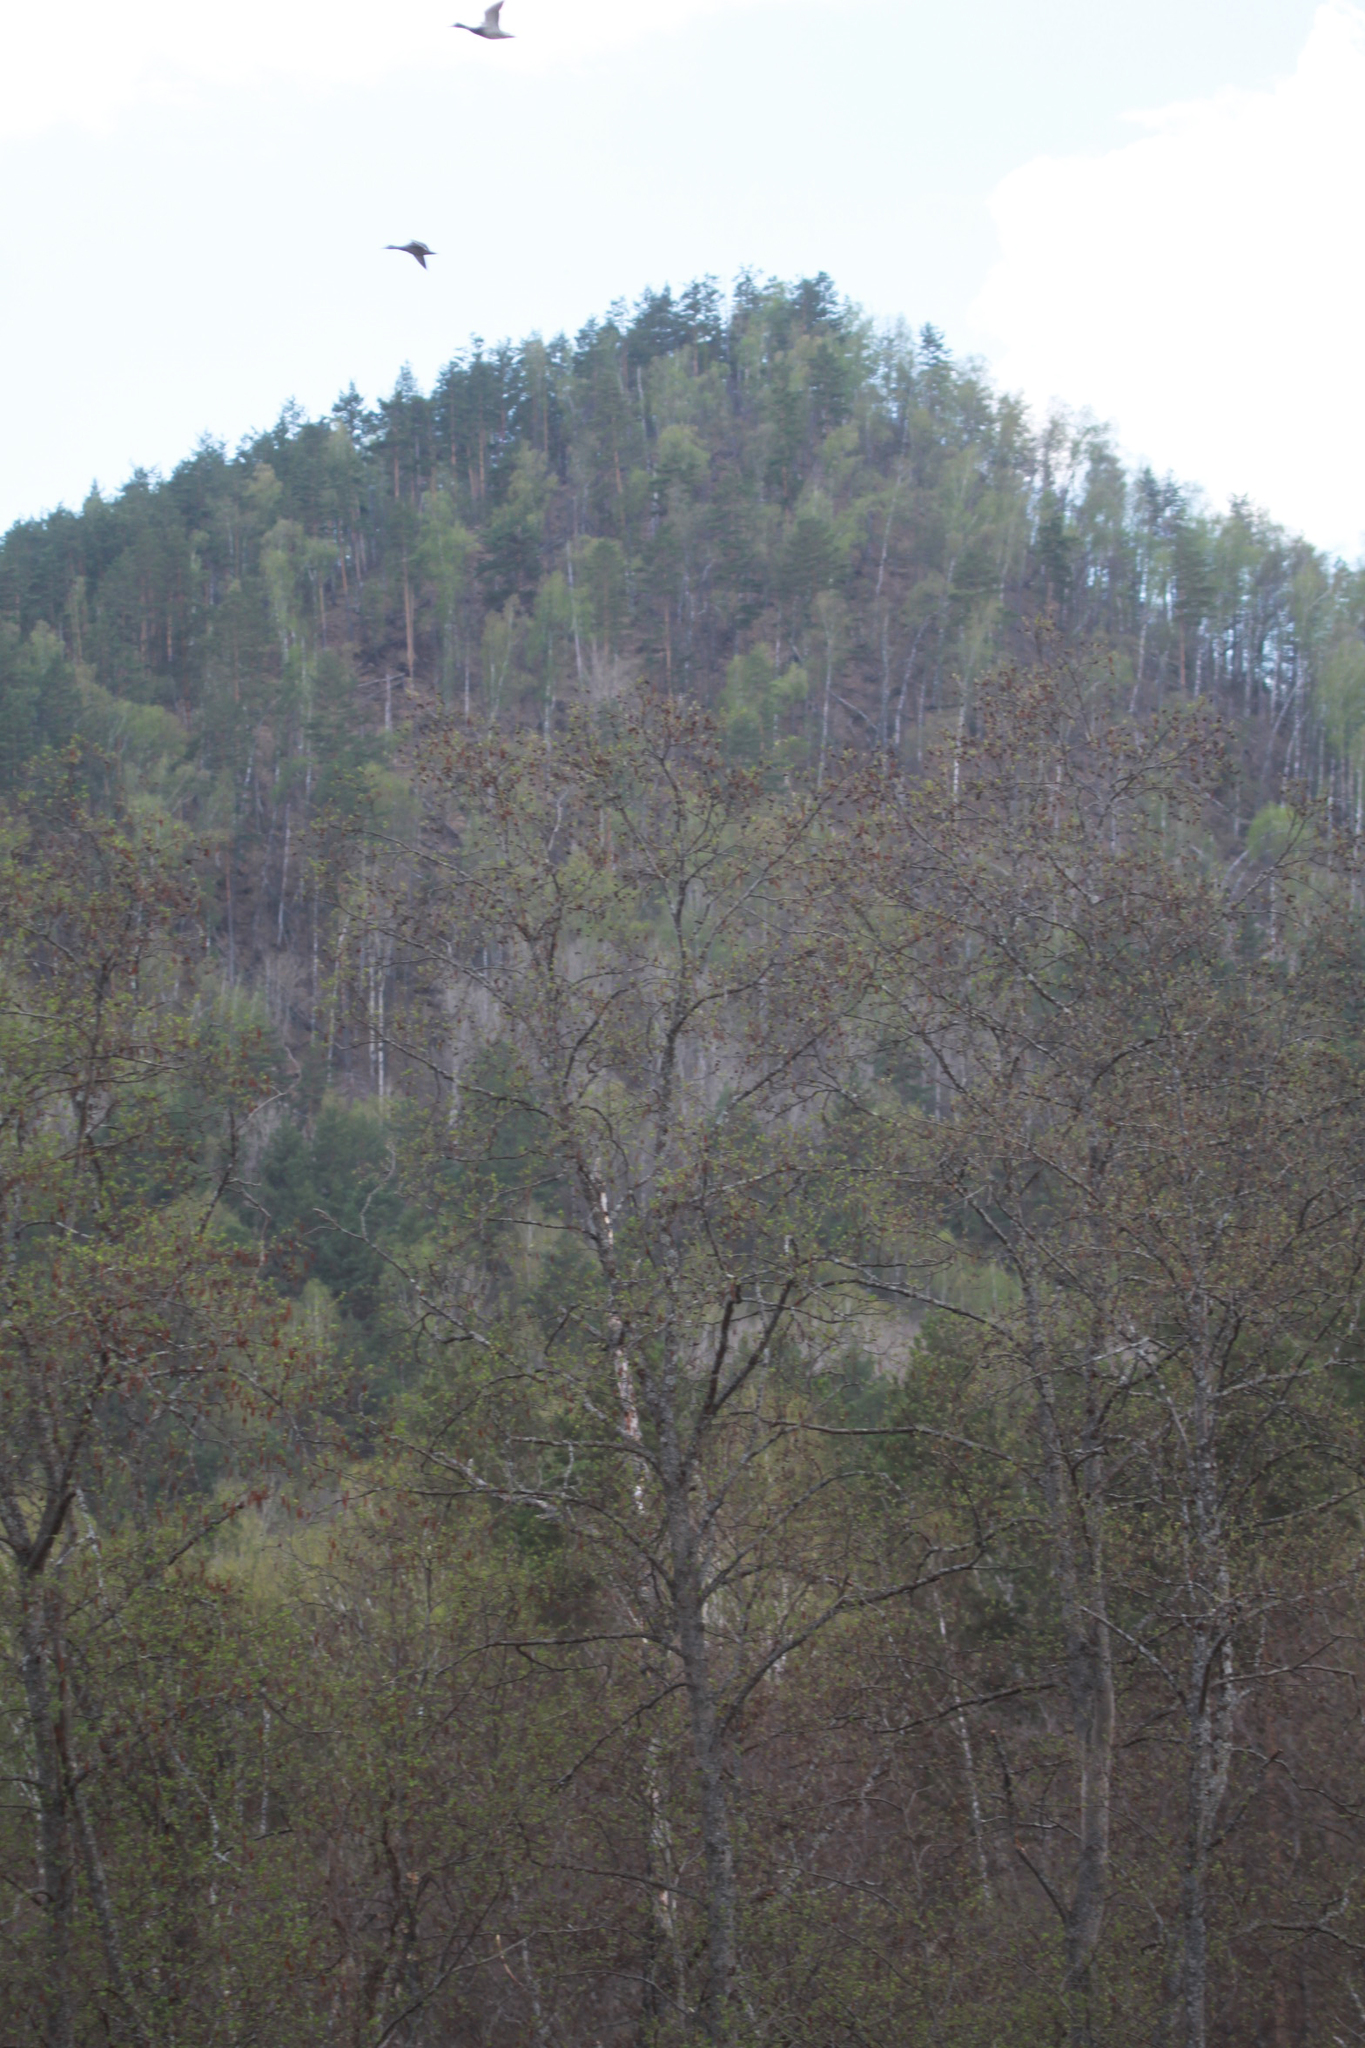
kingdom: Animalia
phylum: Chordata
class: Aves
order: Anseriformes
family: Anatidae
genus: Anas
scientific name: Anas platyrhynchos
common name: Mallard
